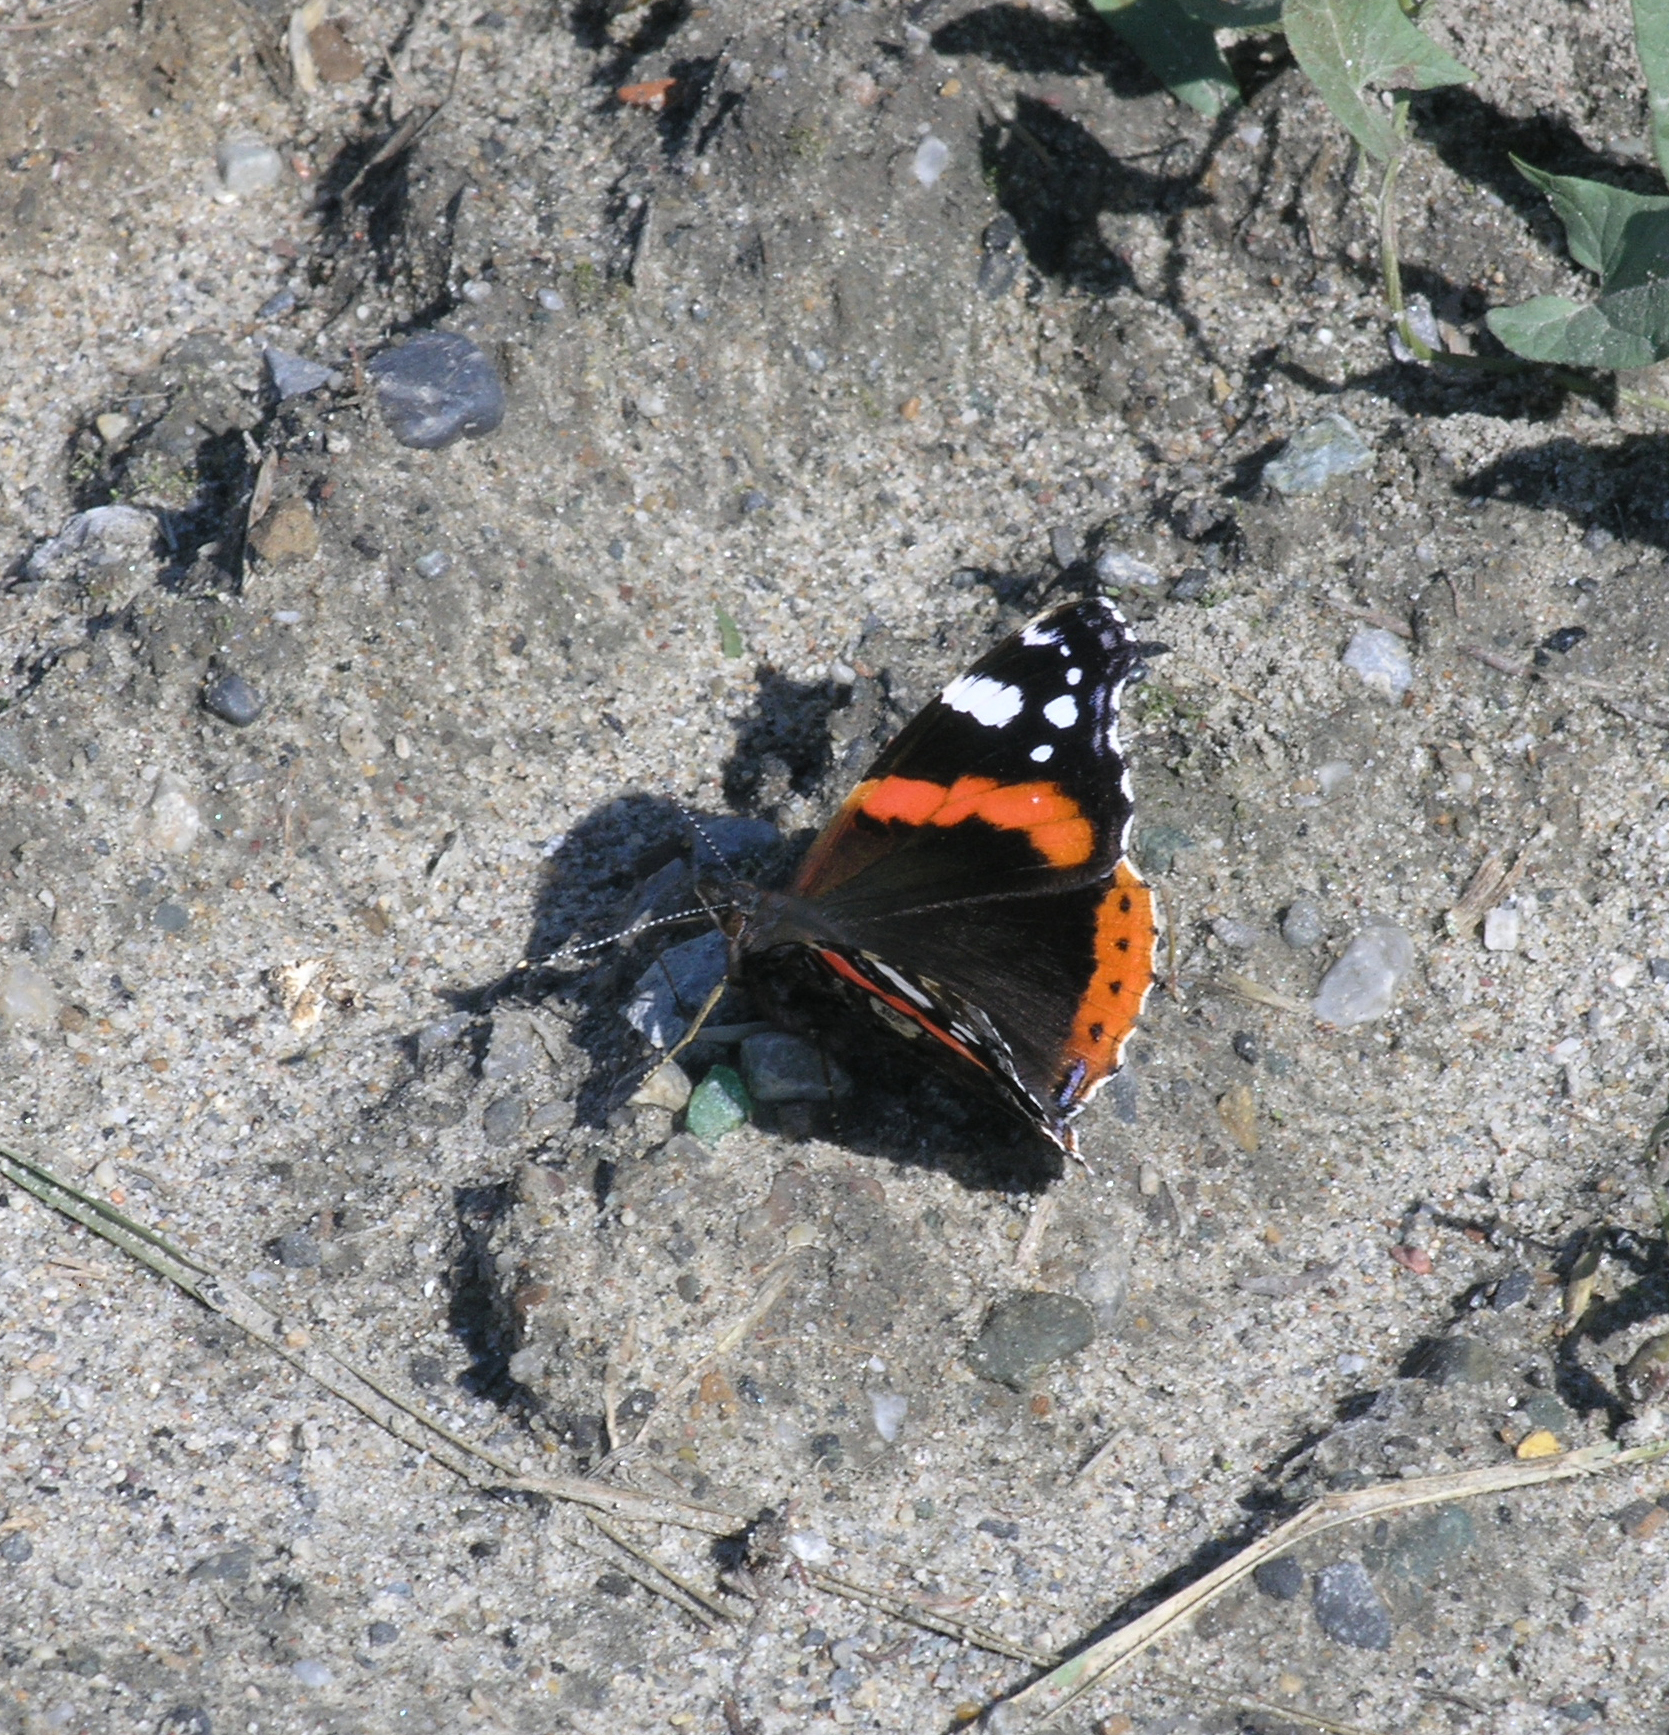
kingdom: Animalia
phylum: Arthropoda
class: Insecta
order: Lepidoptera
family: Nymphalidae
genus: Vanessa
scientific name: Vanessa atalanta
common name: Red admiral
